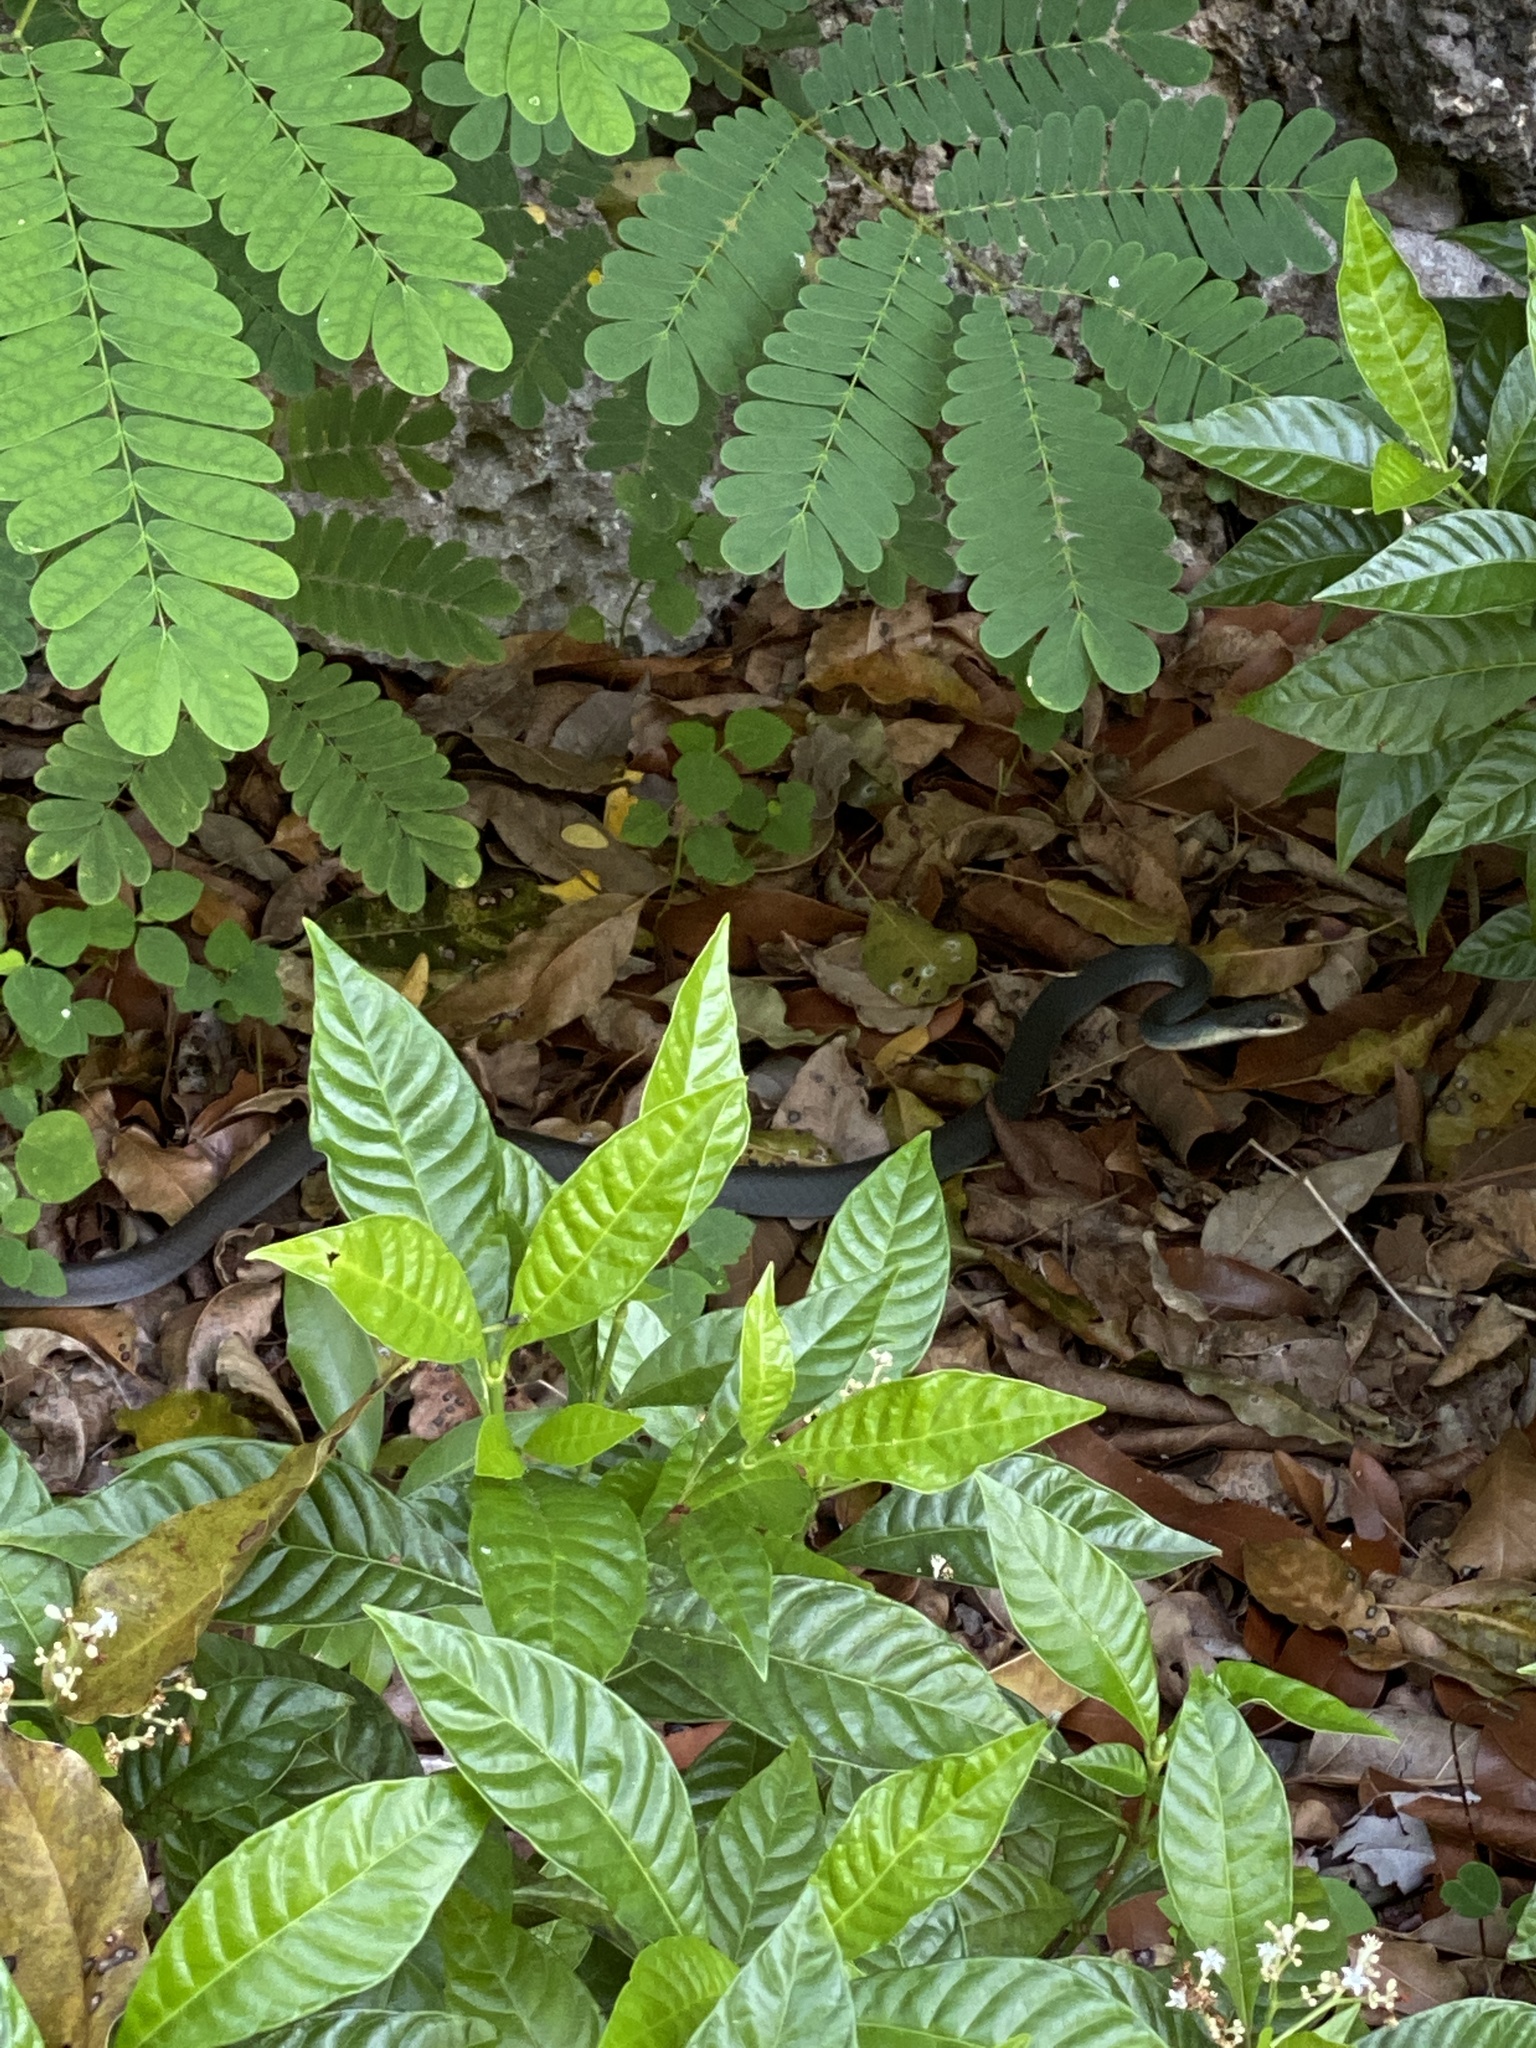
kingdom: Animalia
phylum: Chordata
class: Squamata
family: Colubridae
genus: Coluber
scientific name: Coluber constrictor
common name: Eastern racer
